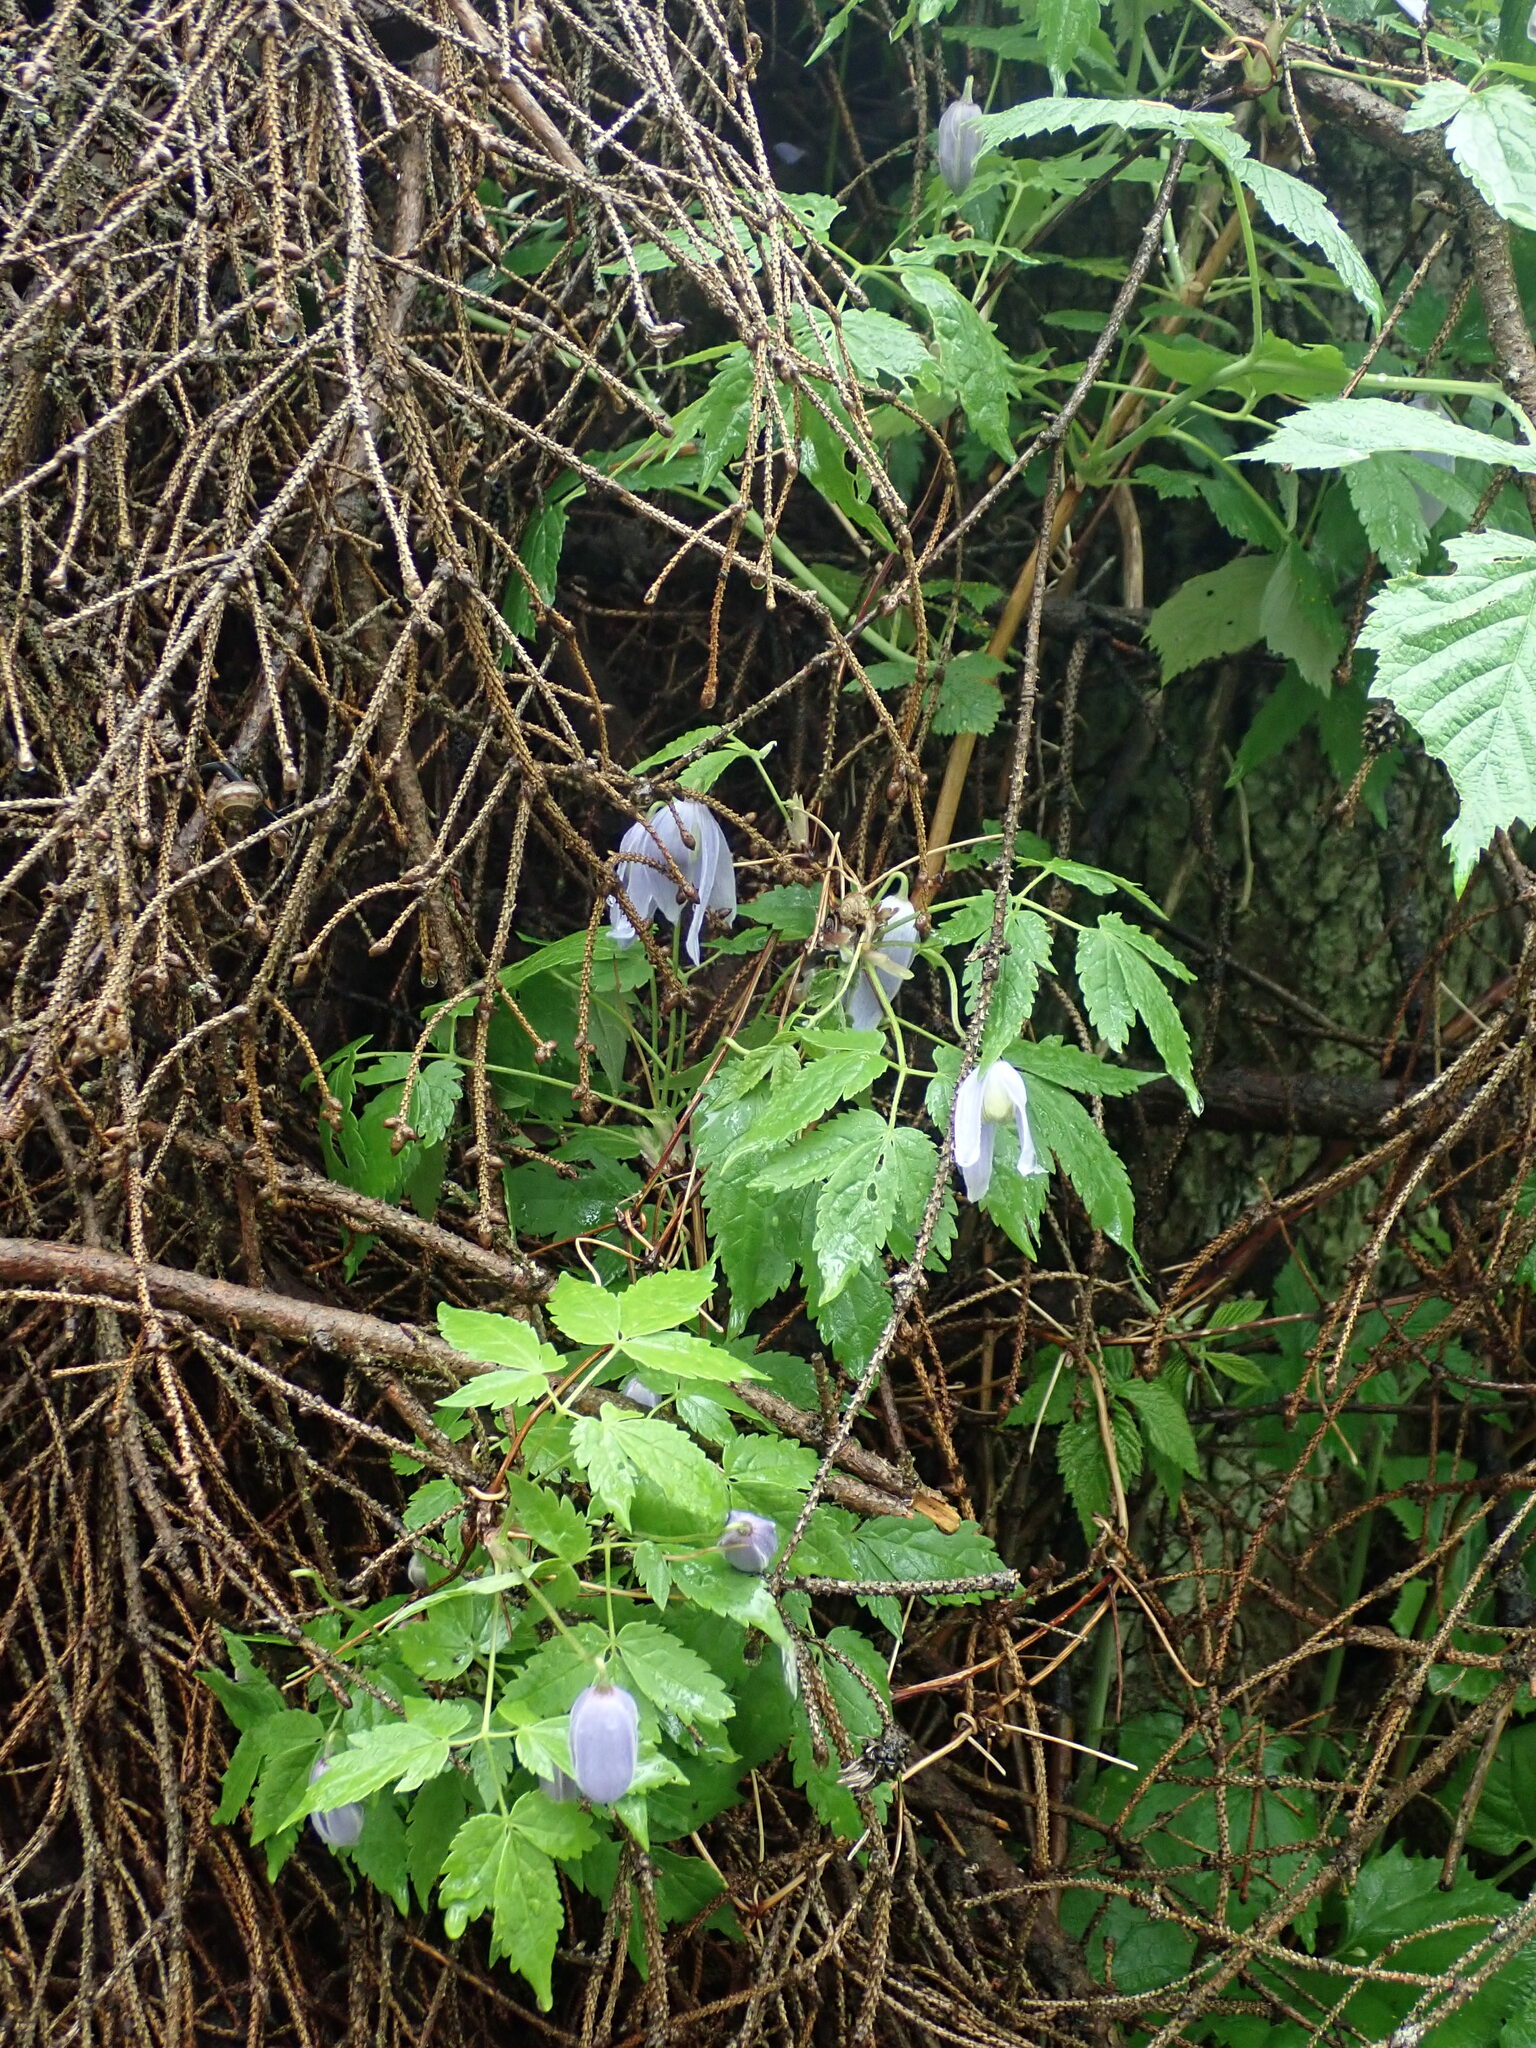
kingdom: Plantae
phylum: Tracheophyta
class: Magnoliopsida
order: Ranunculales
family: Ranunculaceae
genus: Clematis
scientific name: Clematis alpina
